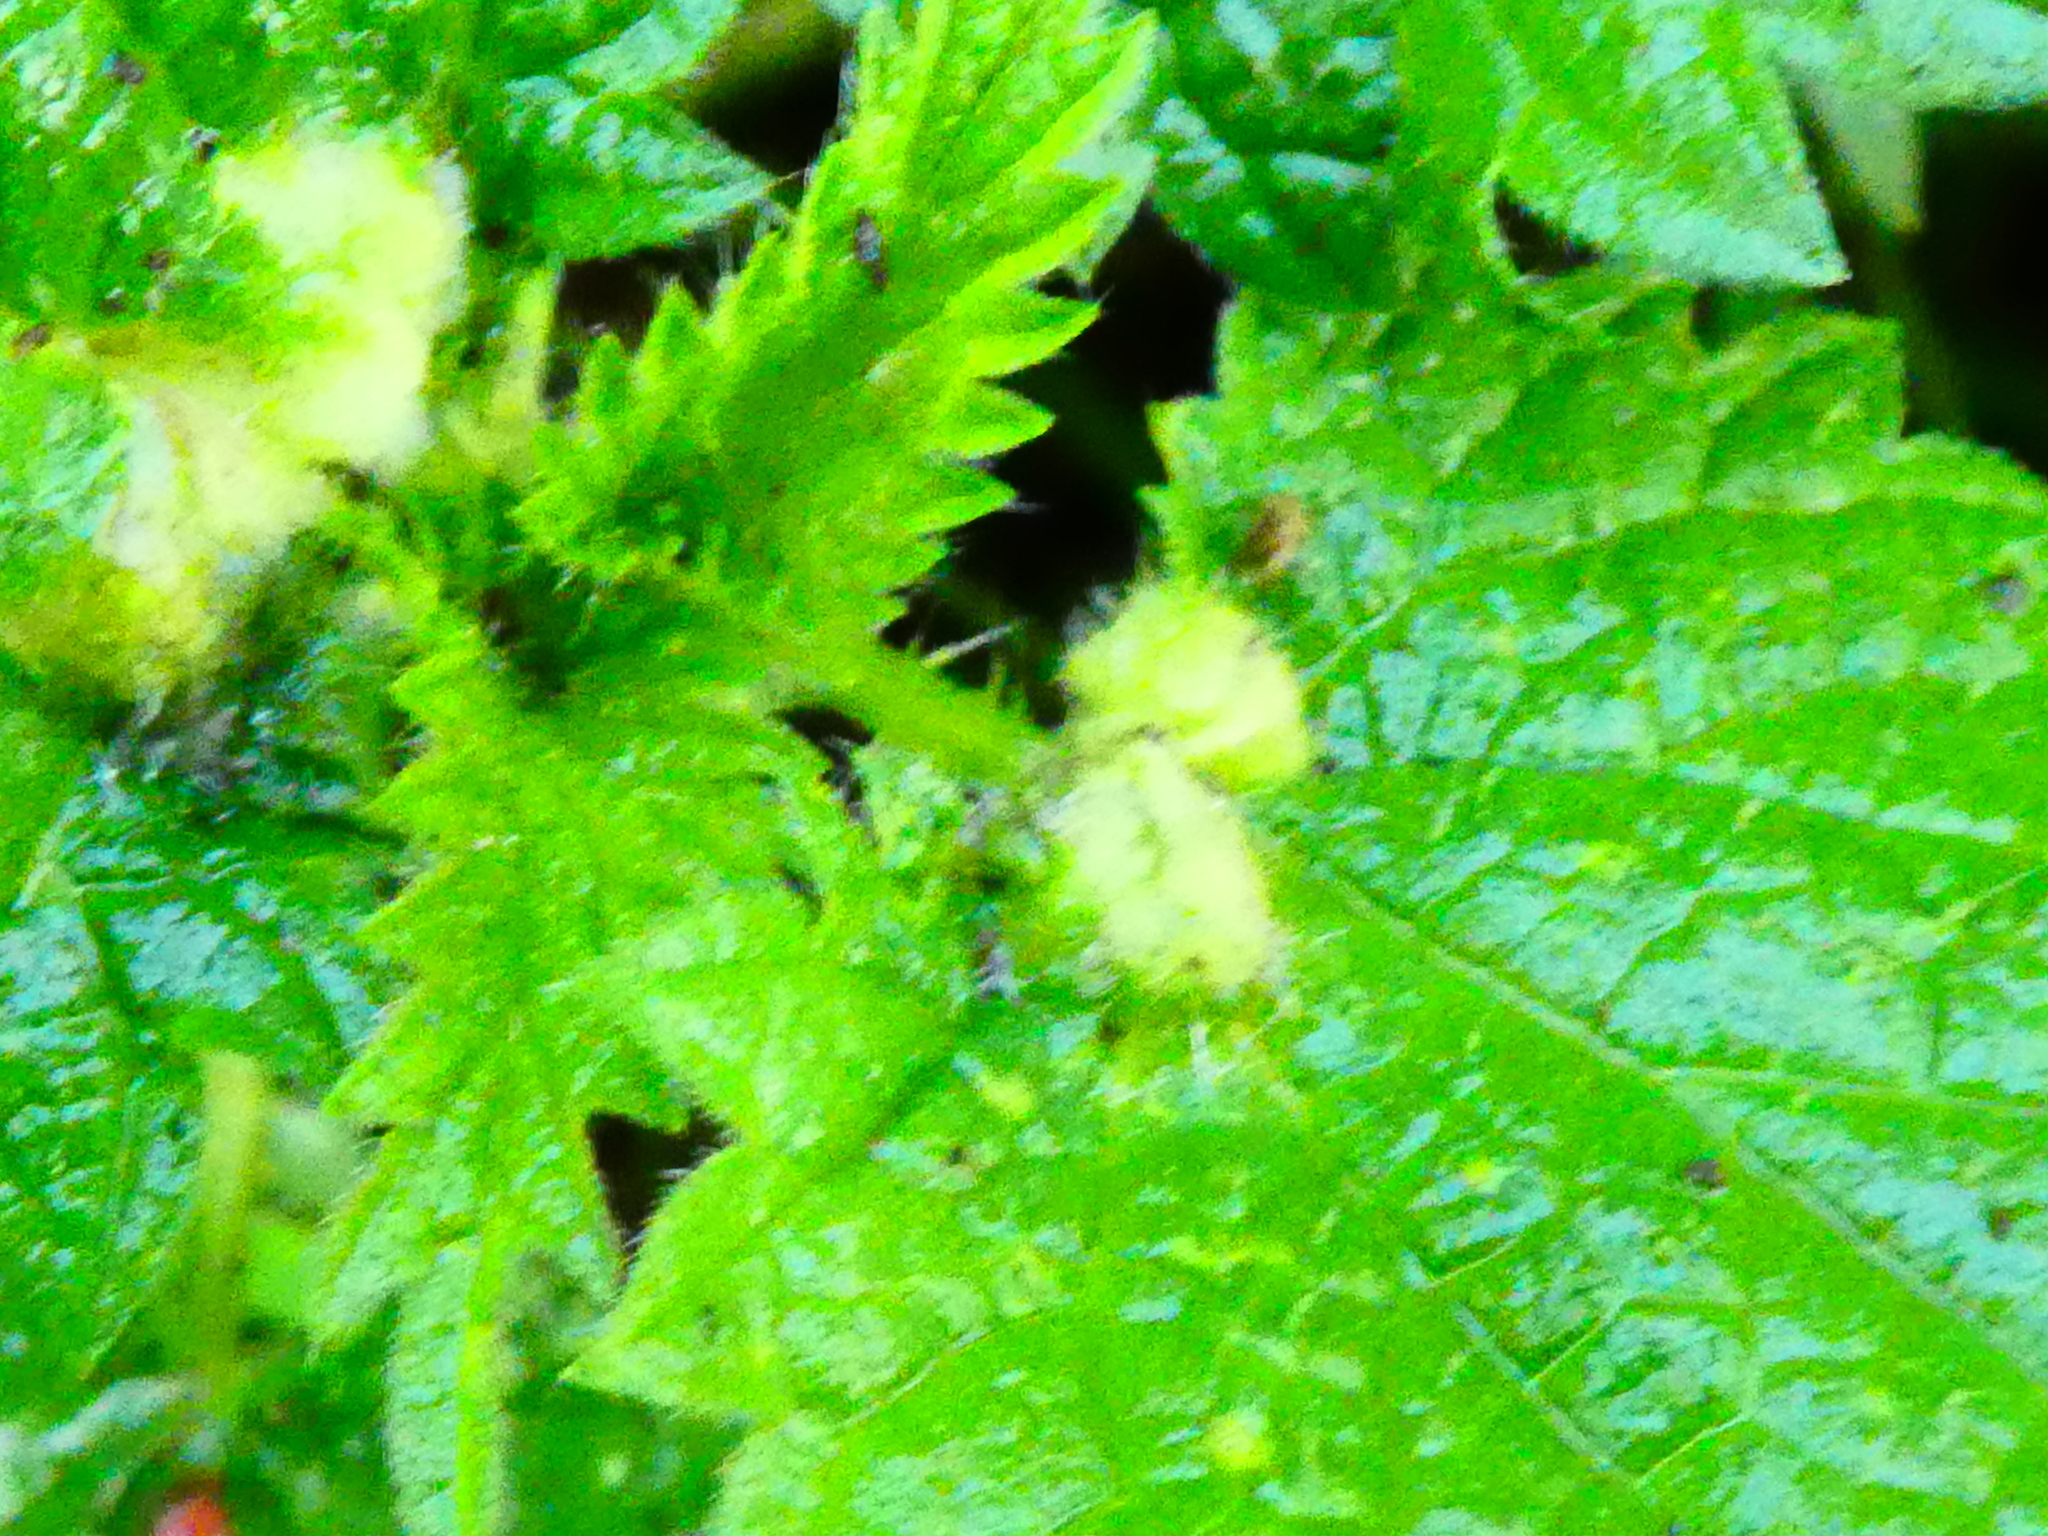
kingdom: Animalia
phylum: Arthropoda
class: Insecta
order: Diptera
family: Cecidomyiidae
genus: Dasineura
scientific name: Dasineura urticae
